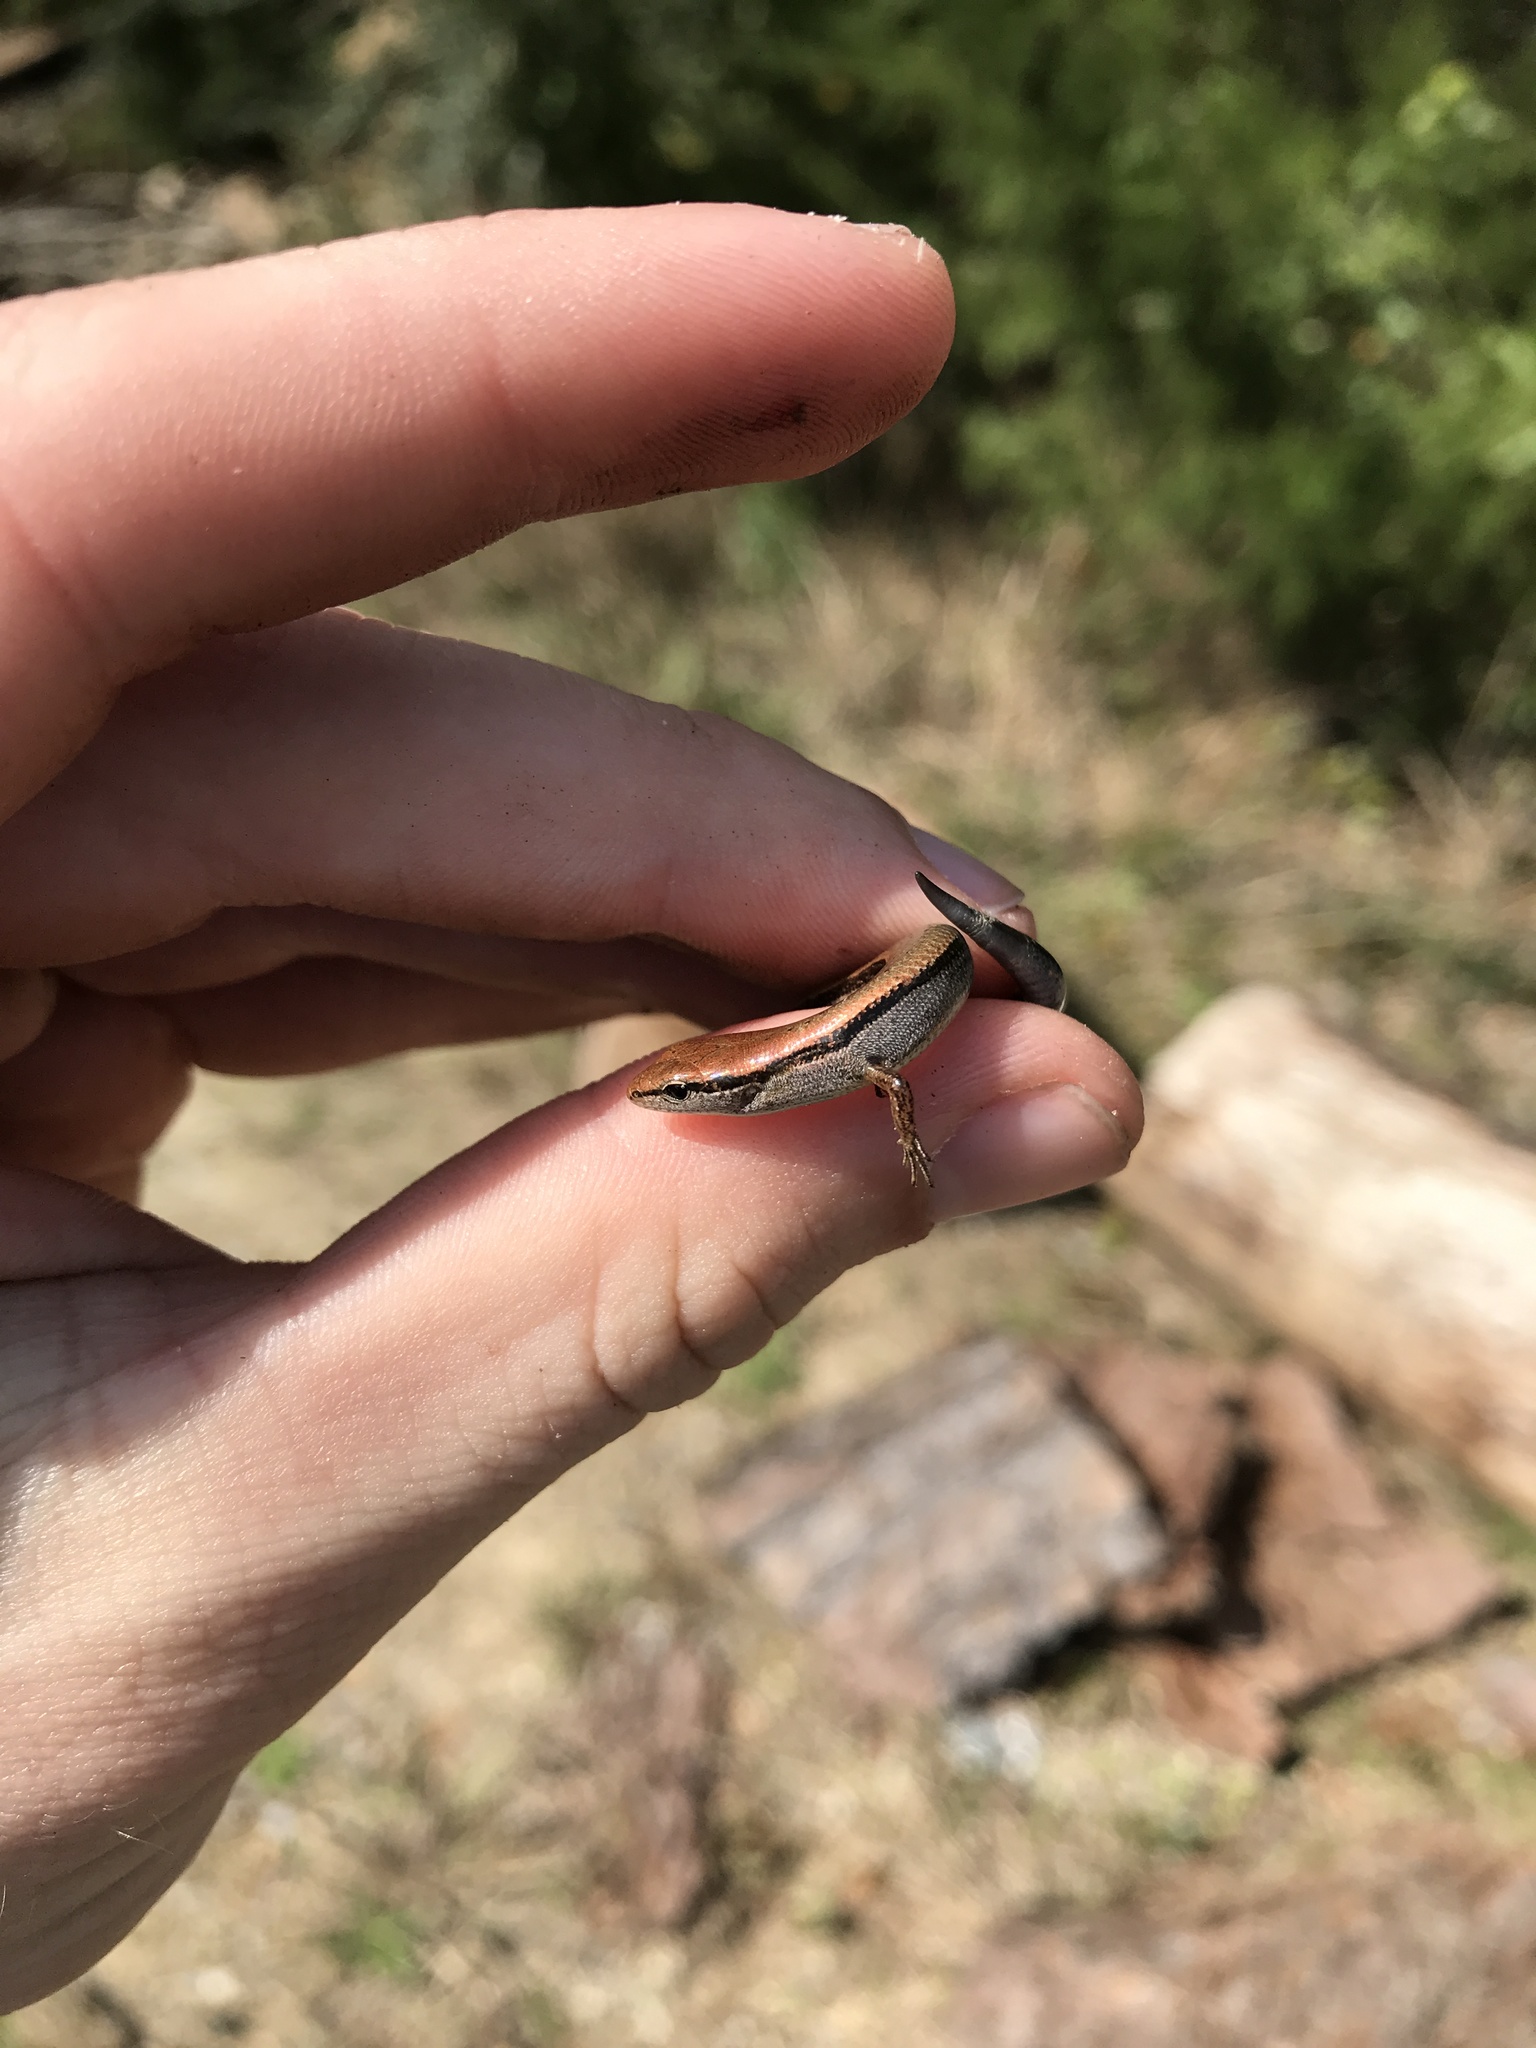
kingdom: Animalia
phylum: Chordata
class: Squamata
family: Scincidae
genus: Scincella
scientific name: Scincella lateralis
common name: Ground skink
